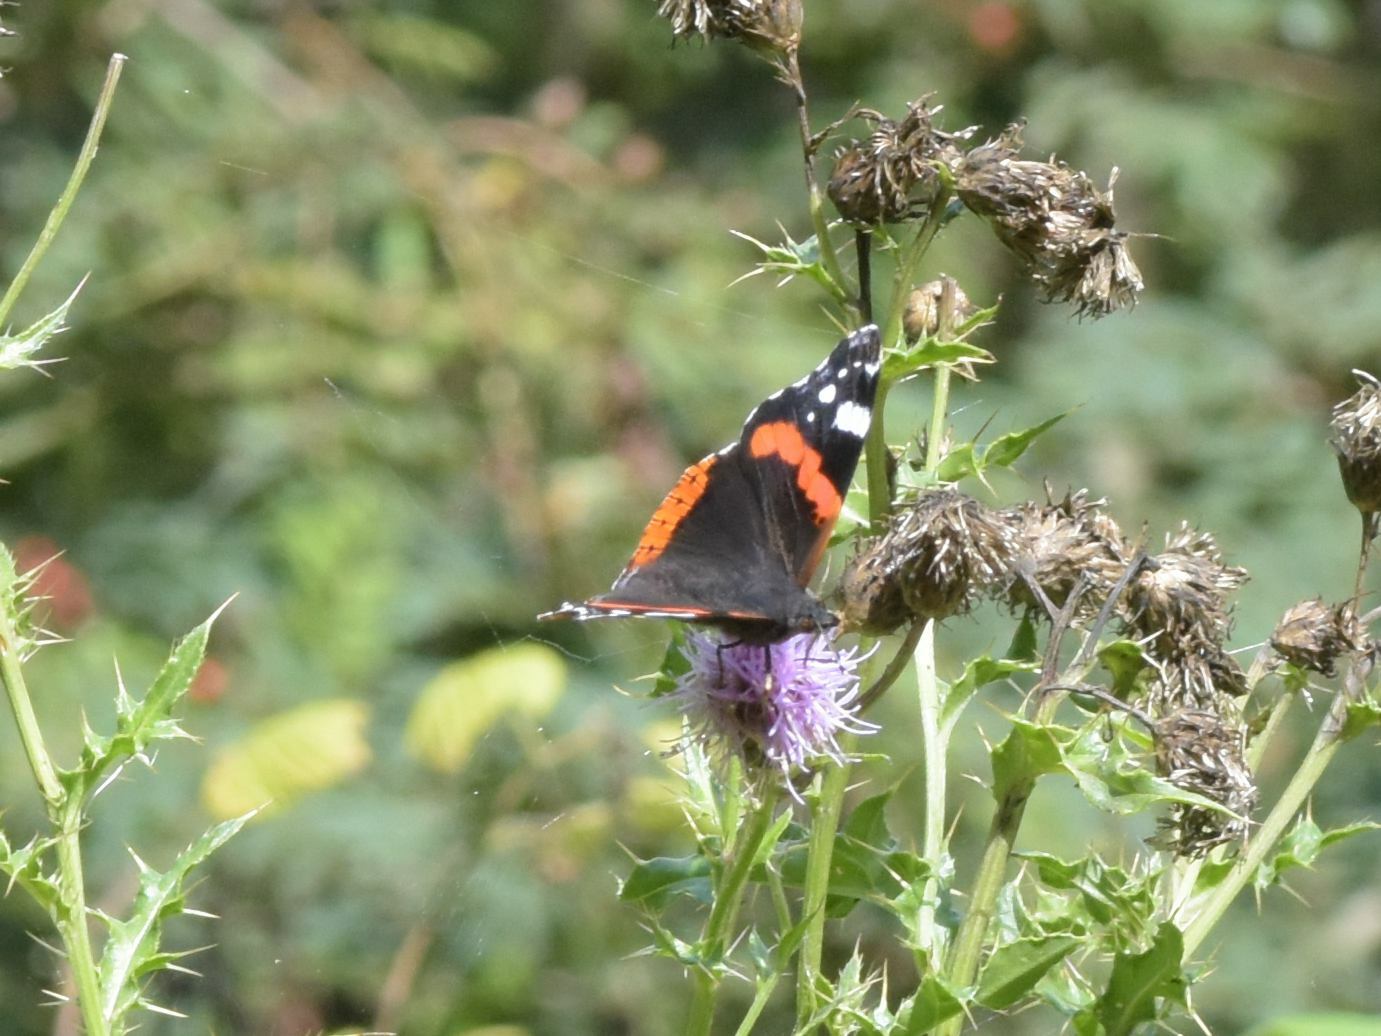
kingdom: Animalia
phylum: Arthropoda
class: Insecta
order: Lepidoptera
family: Nymphalidae
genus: Vanessa
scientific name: Vanessa atalanta
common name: Red admiral
